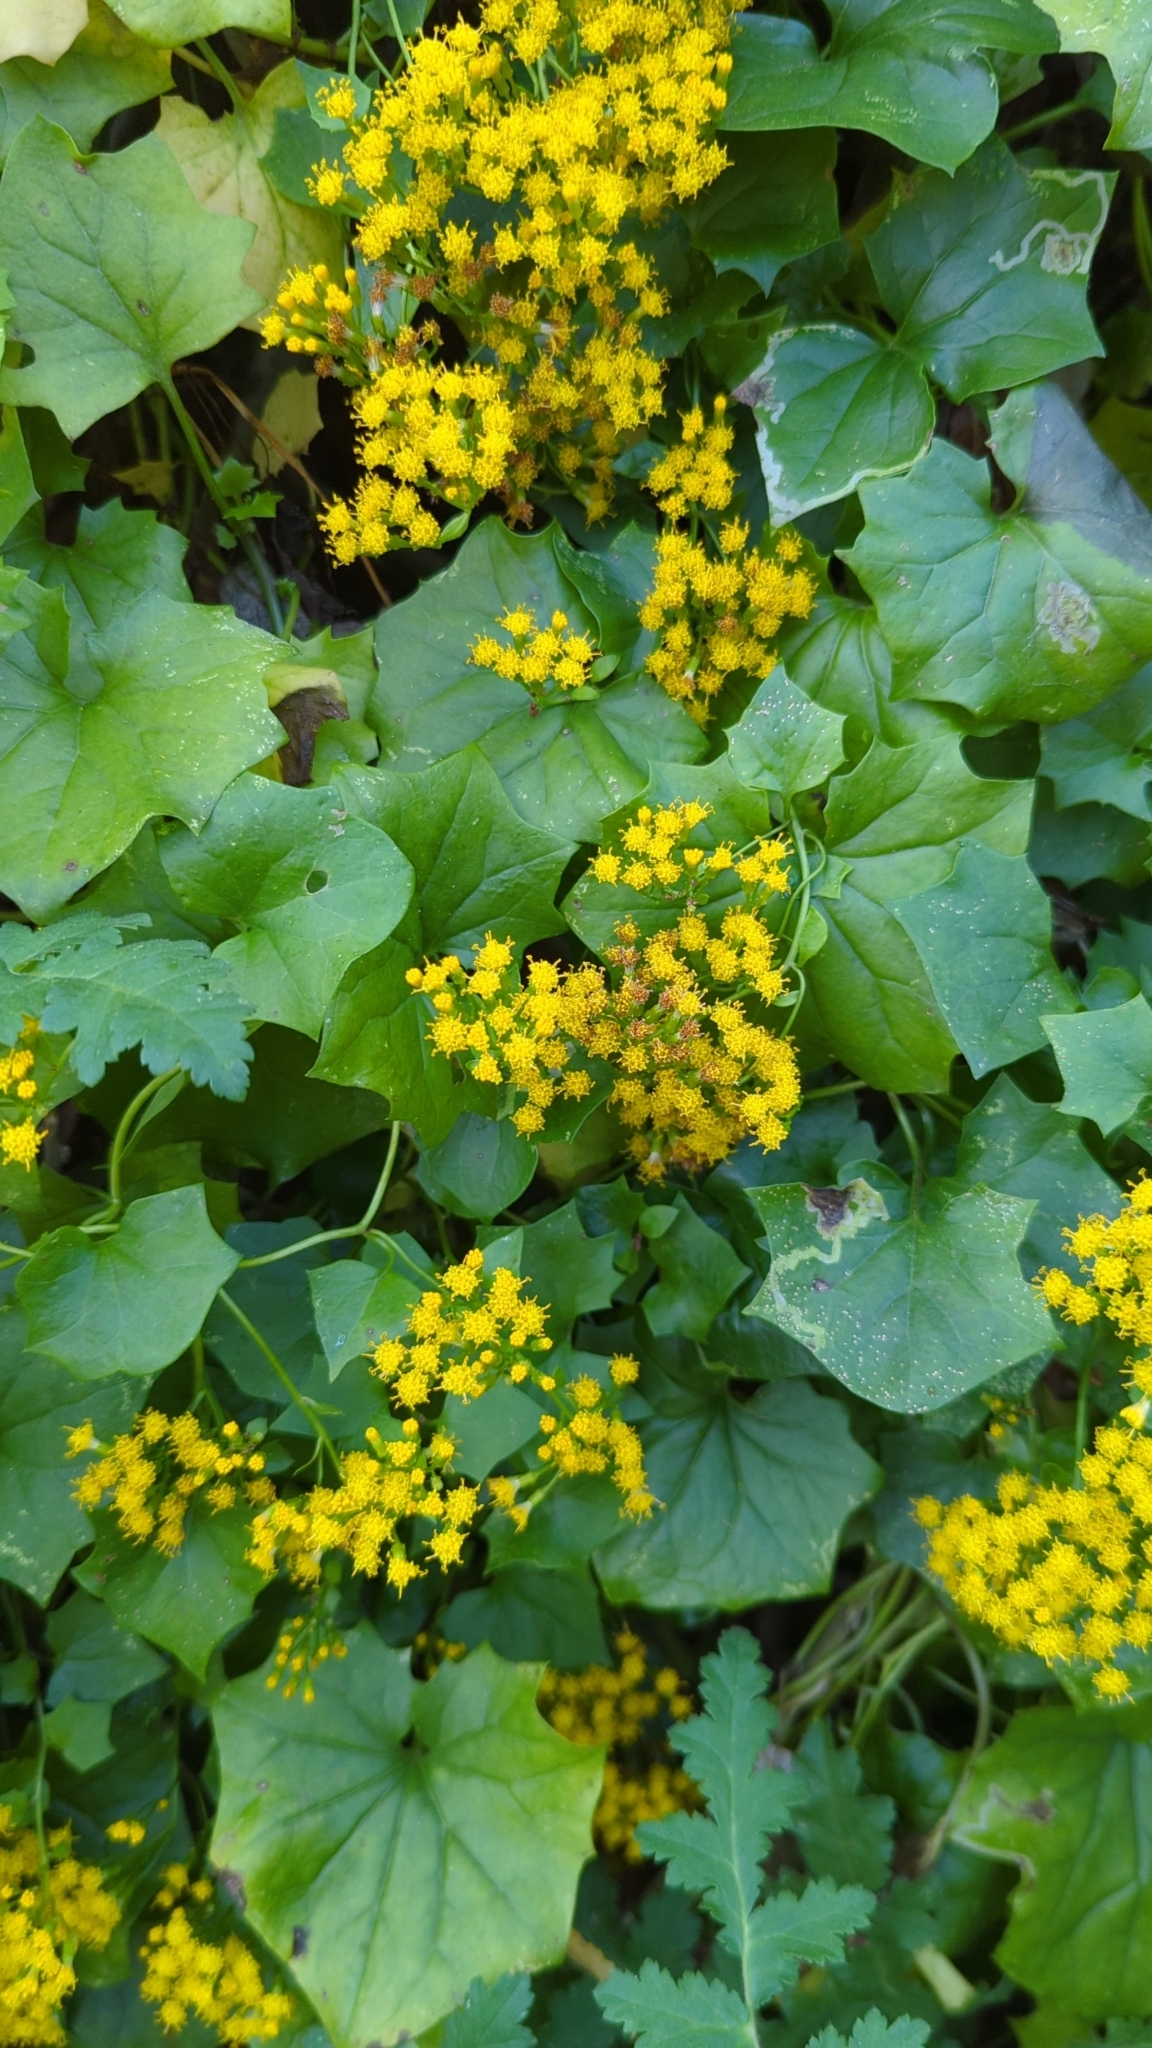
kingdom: Plantae
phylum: Tracheophyta
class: Magnoliopsida
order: Asterales
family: Asteraceae
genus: Delairea
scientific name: Delairea odorata
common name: Cape-ivy
